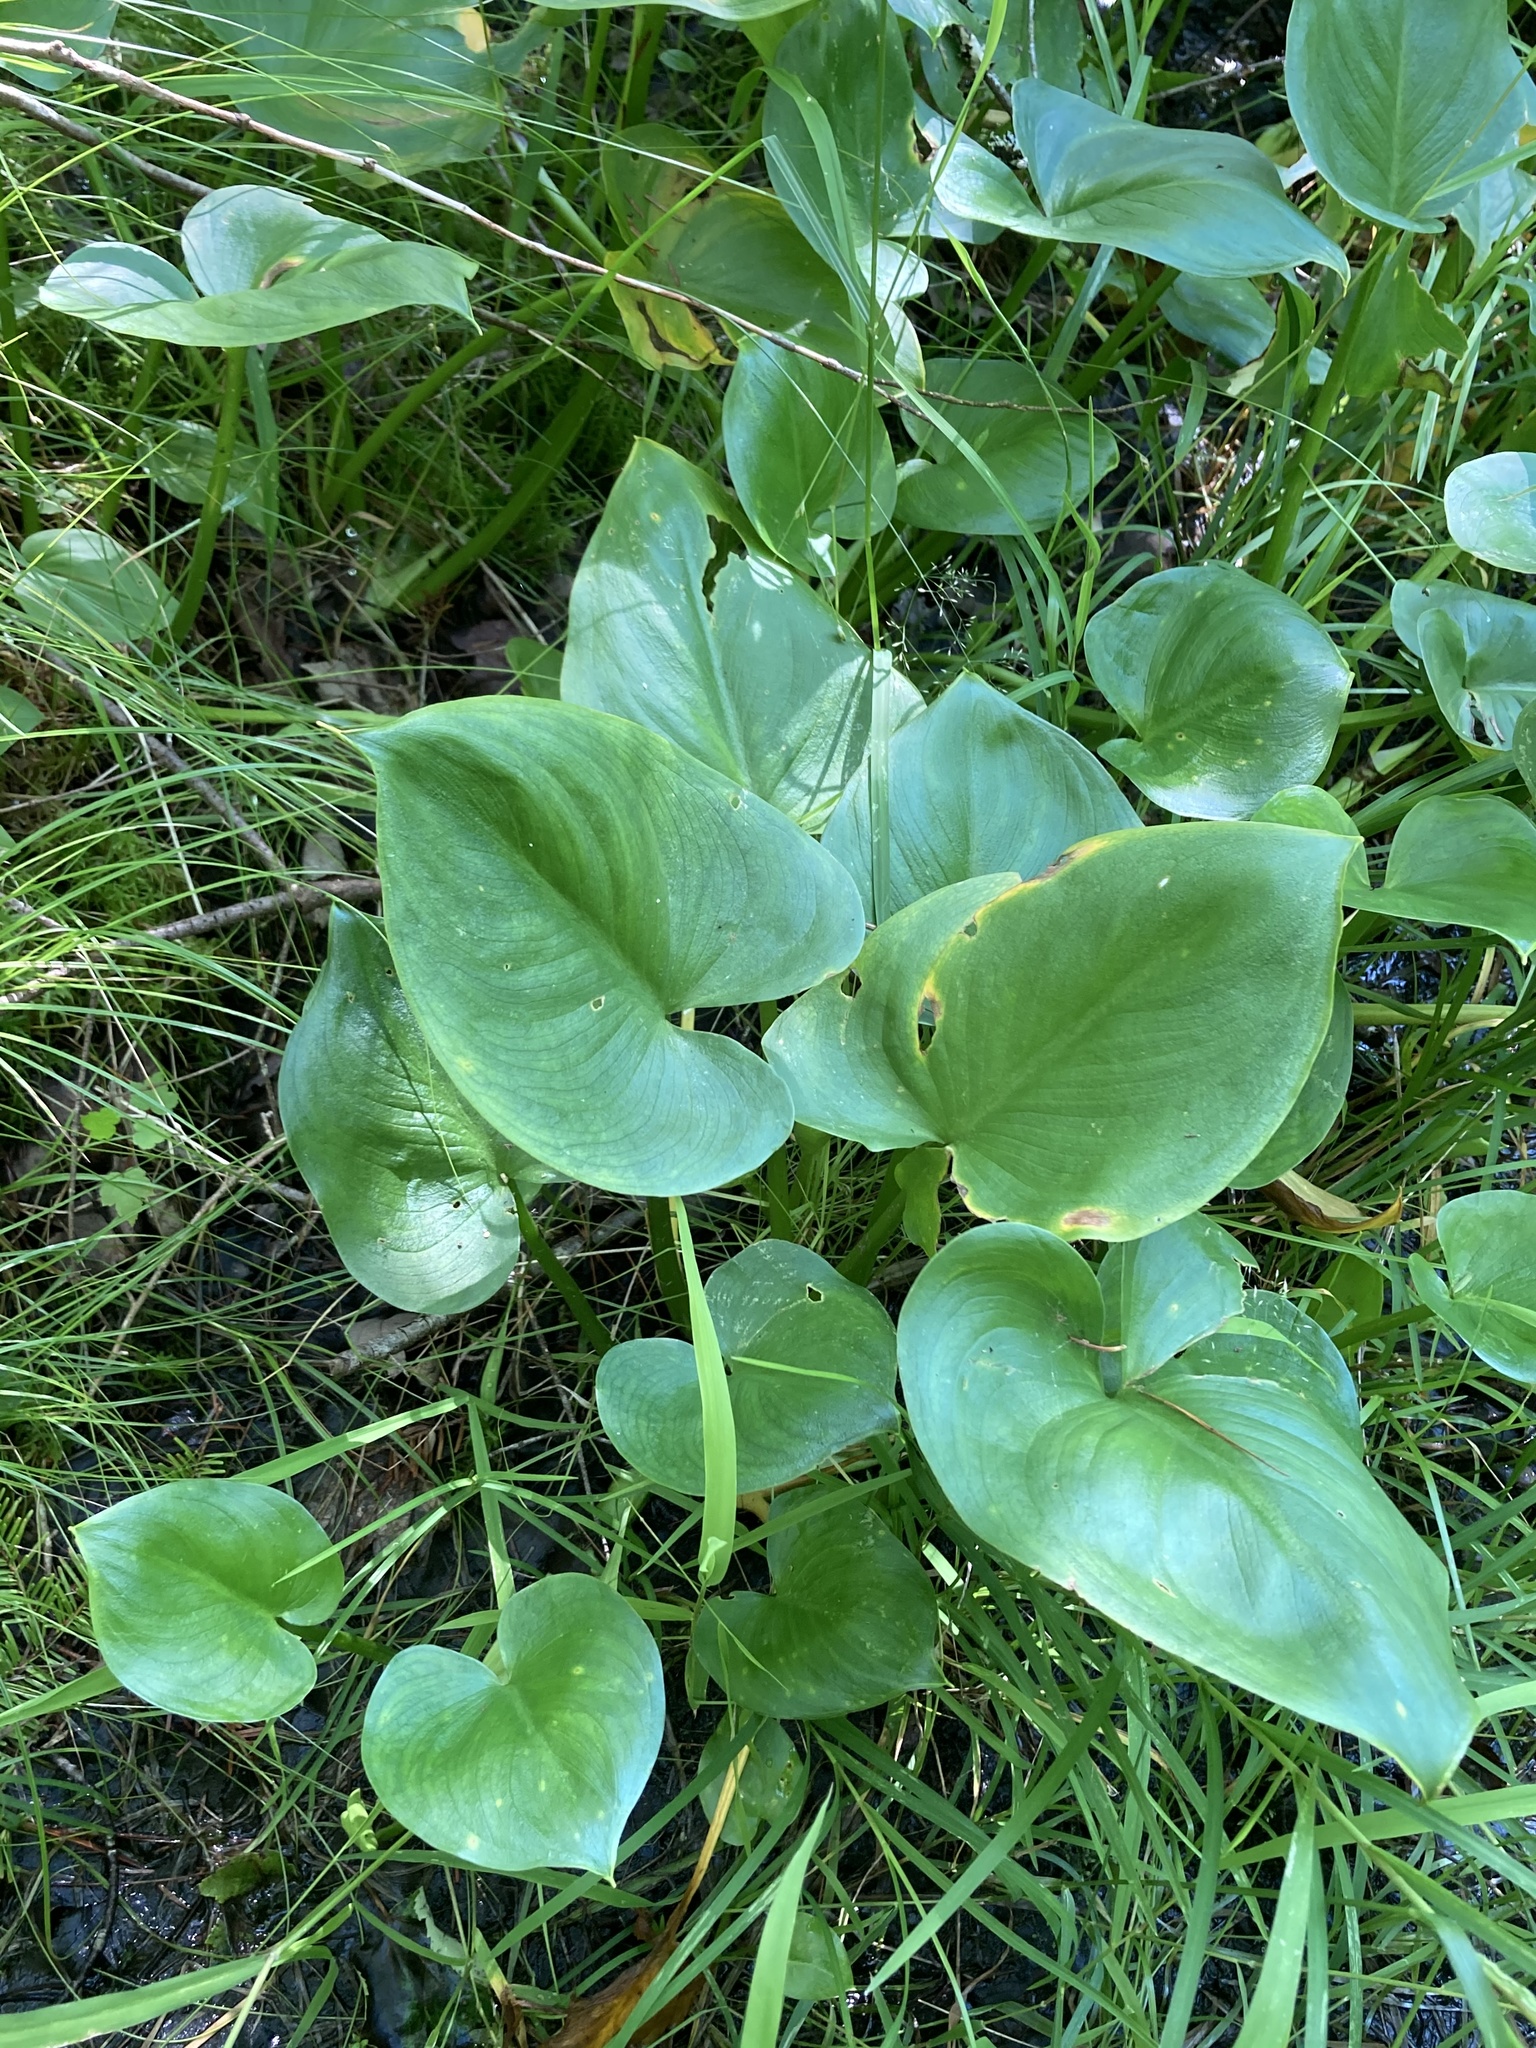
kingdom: Plantae
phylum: Tracheophyta
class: Liliopsida
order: Alismatales
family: Araceae
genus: Calla
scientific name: Calla palustris
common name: Bog arum
